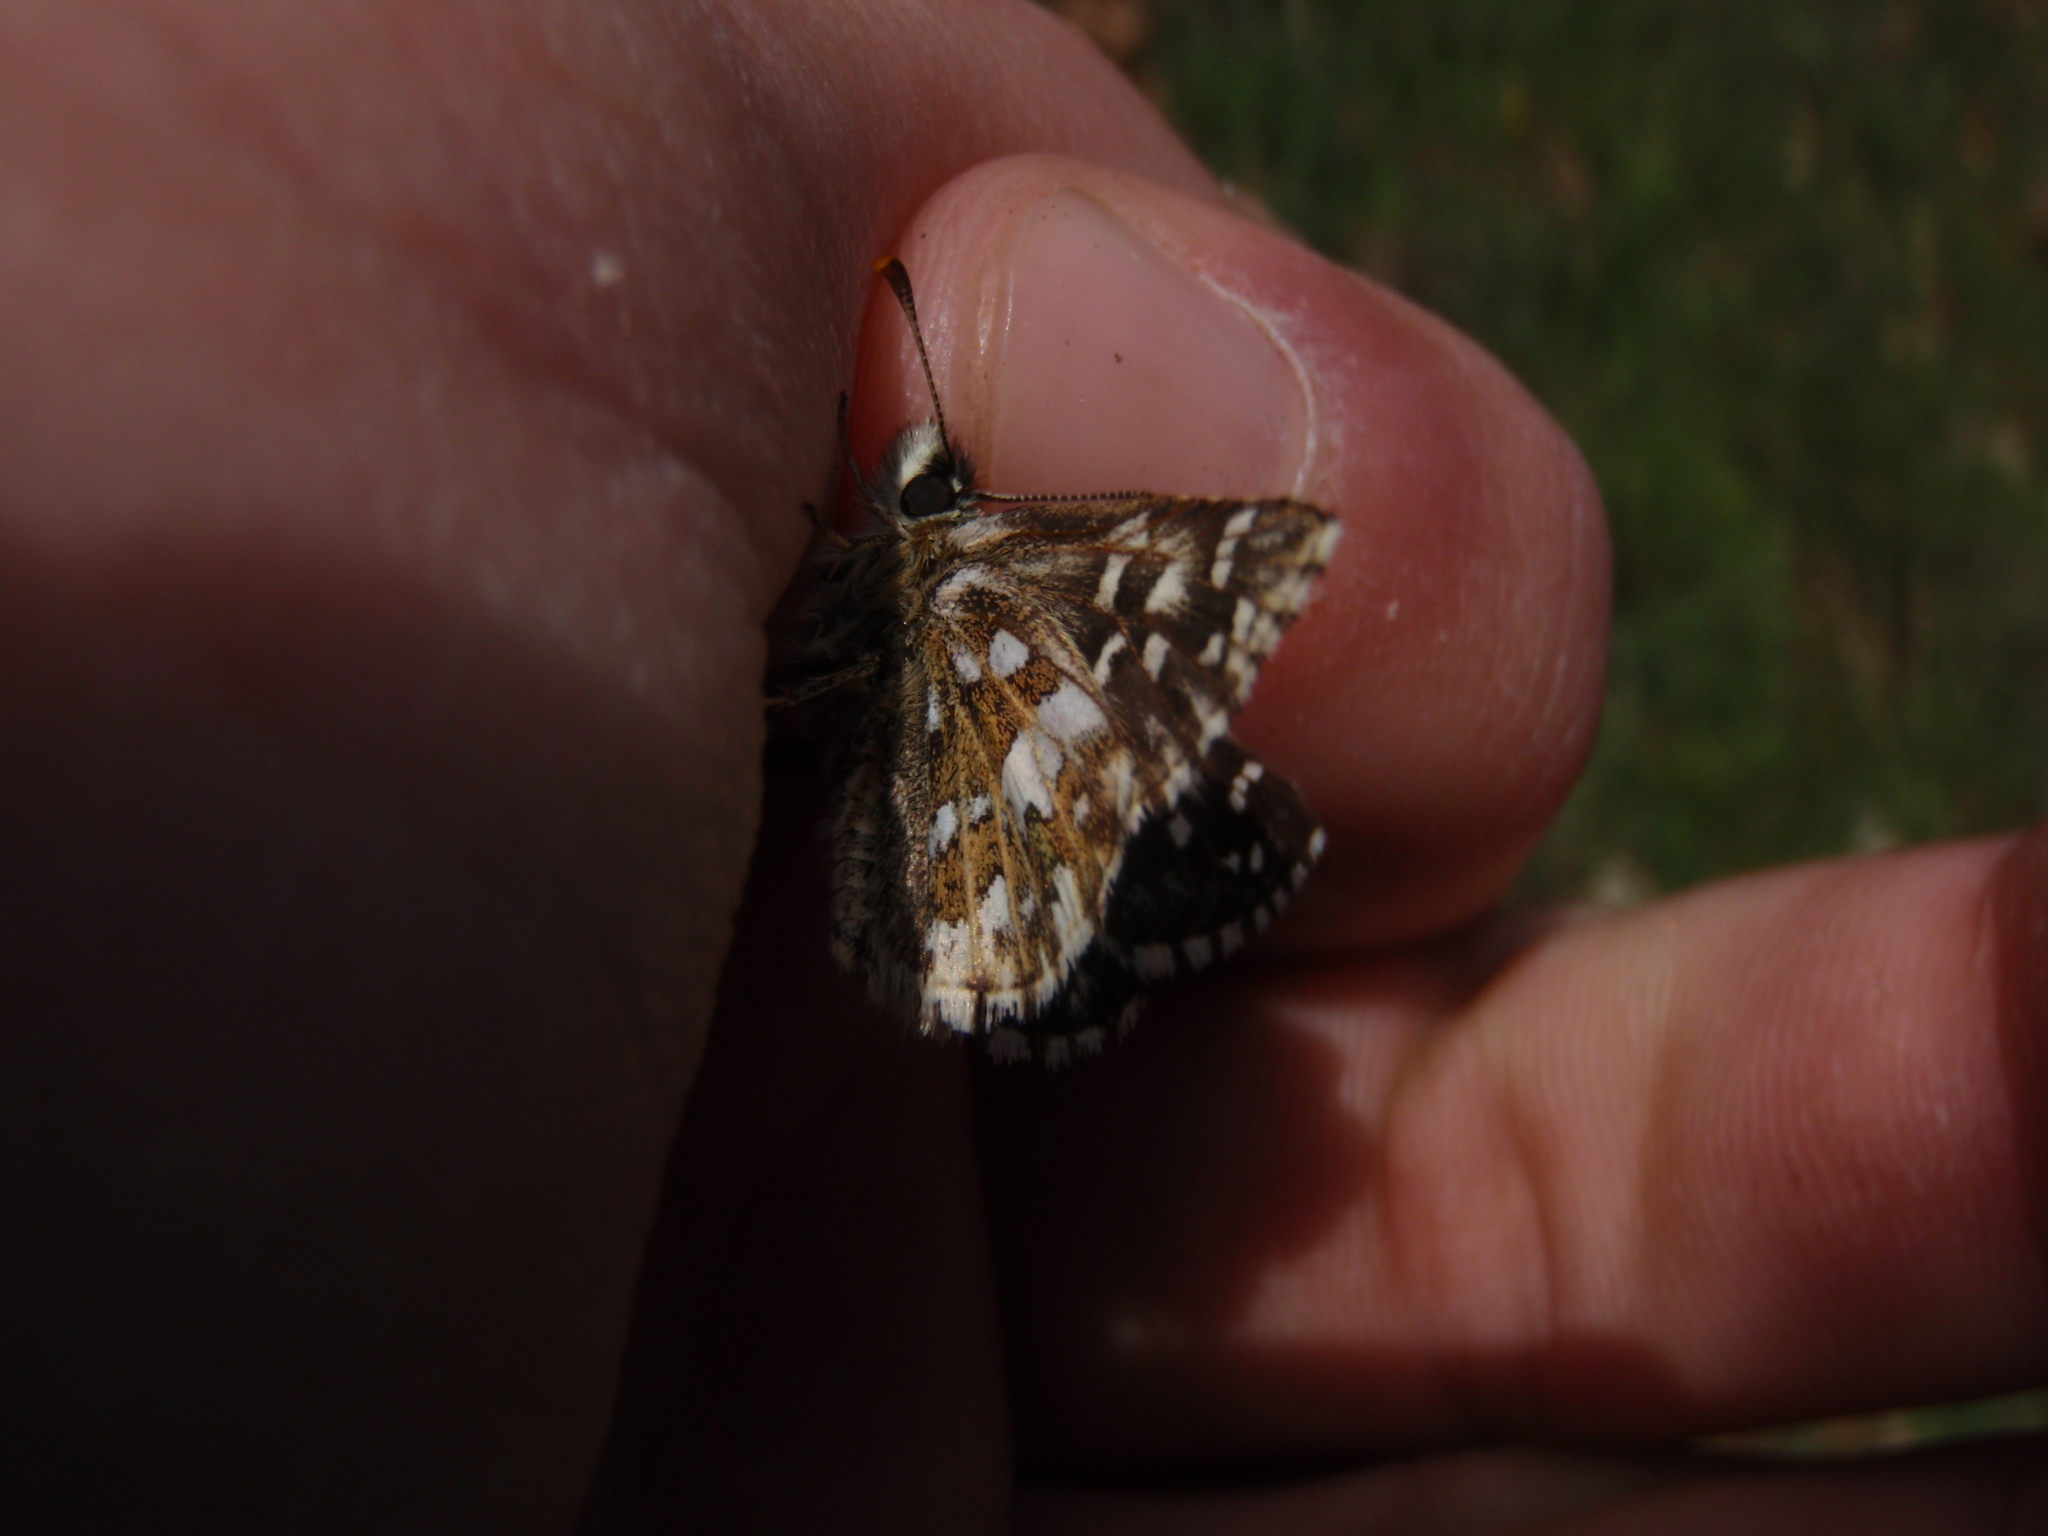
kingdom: Animalia
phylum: Arthropoda
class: Insecta
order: Lepidoptera
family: Hesperiidae
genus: Pyrgus
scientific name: Pyrgus malvoides
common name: Southern grizzled skipper
